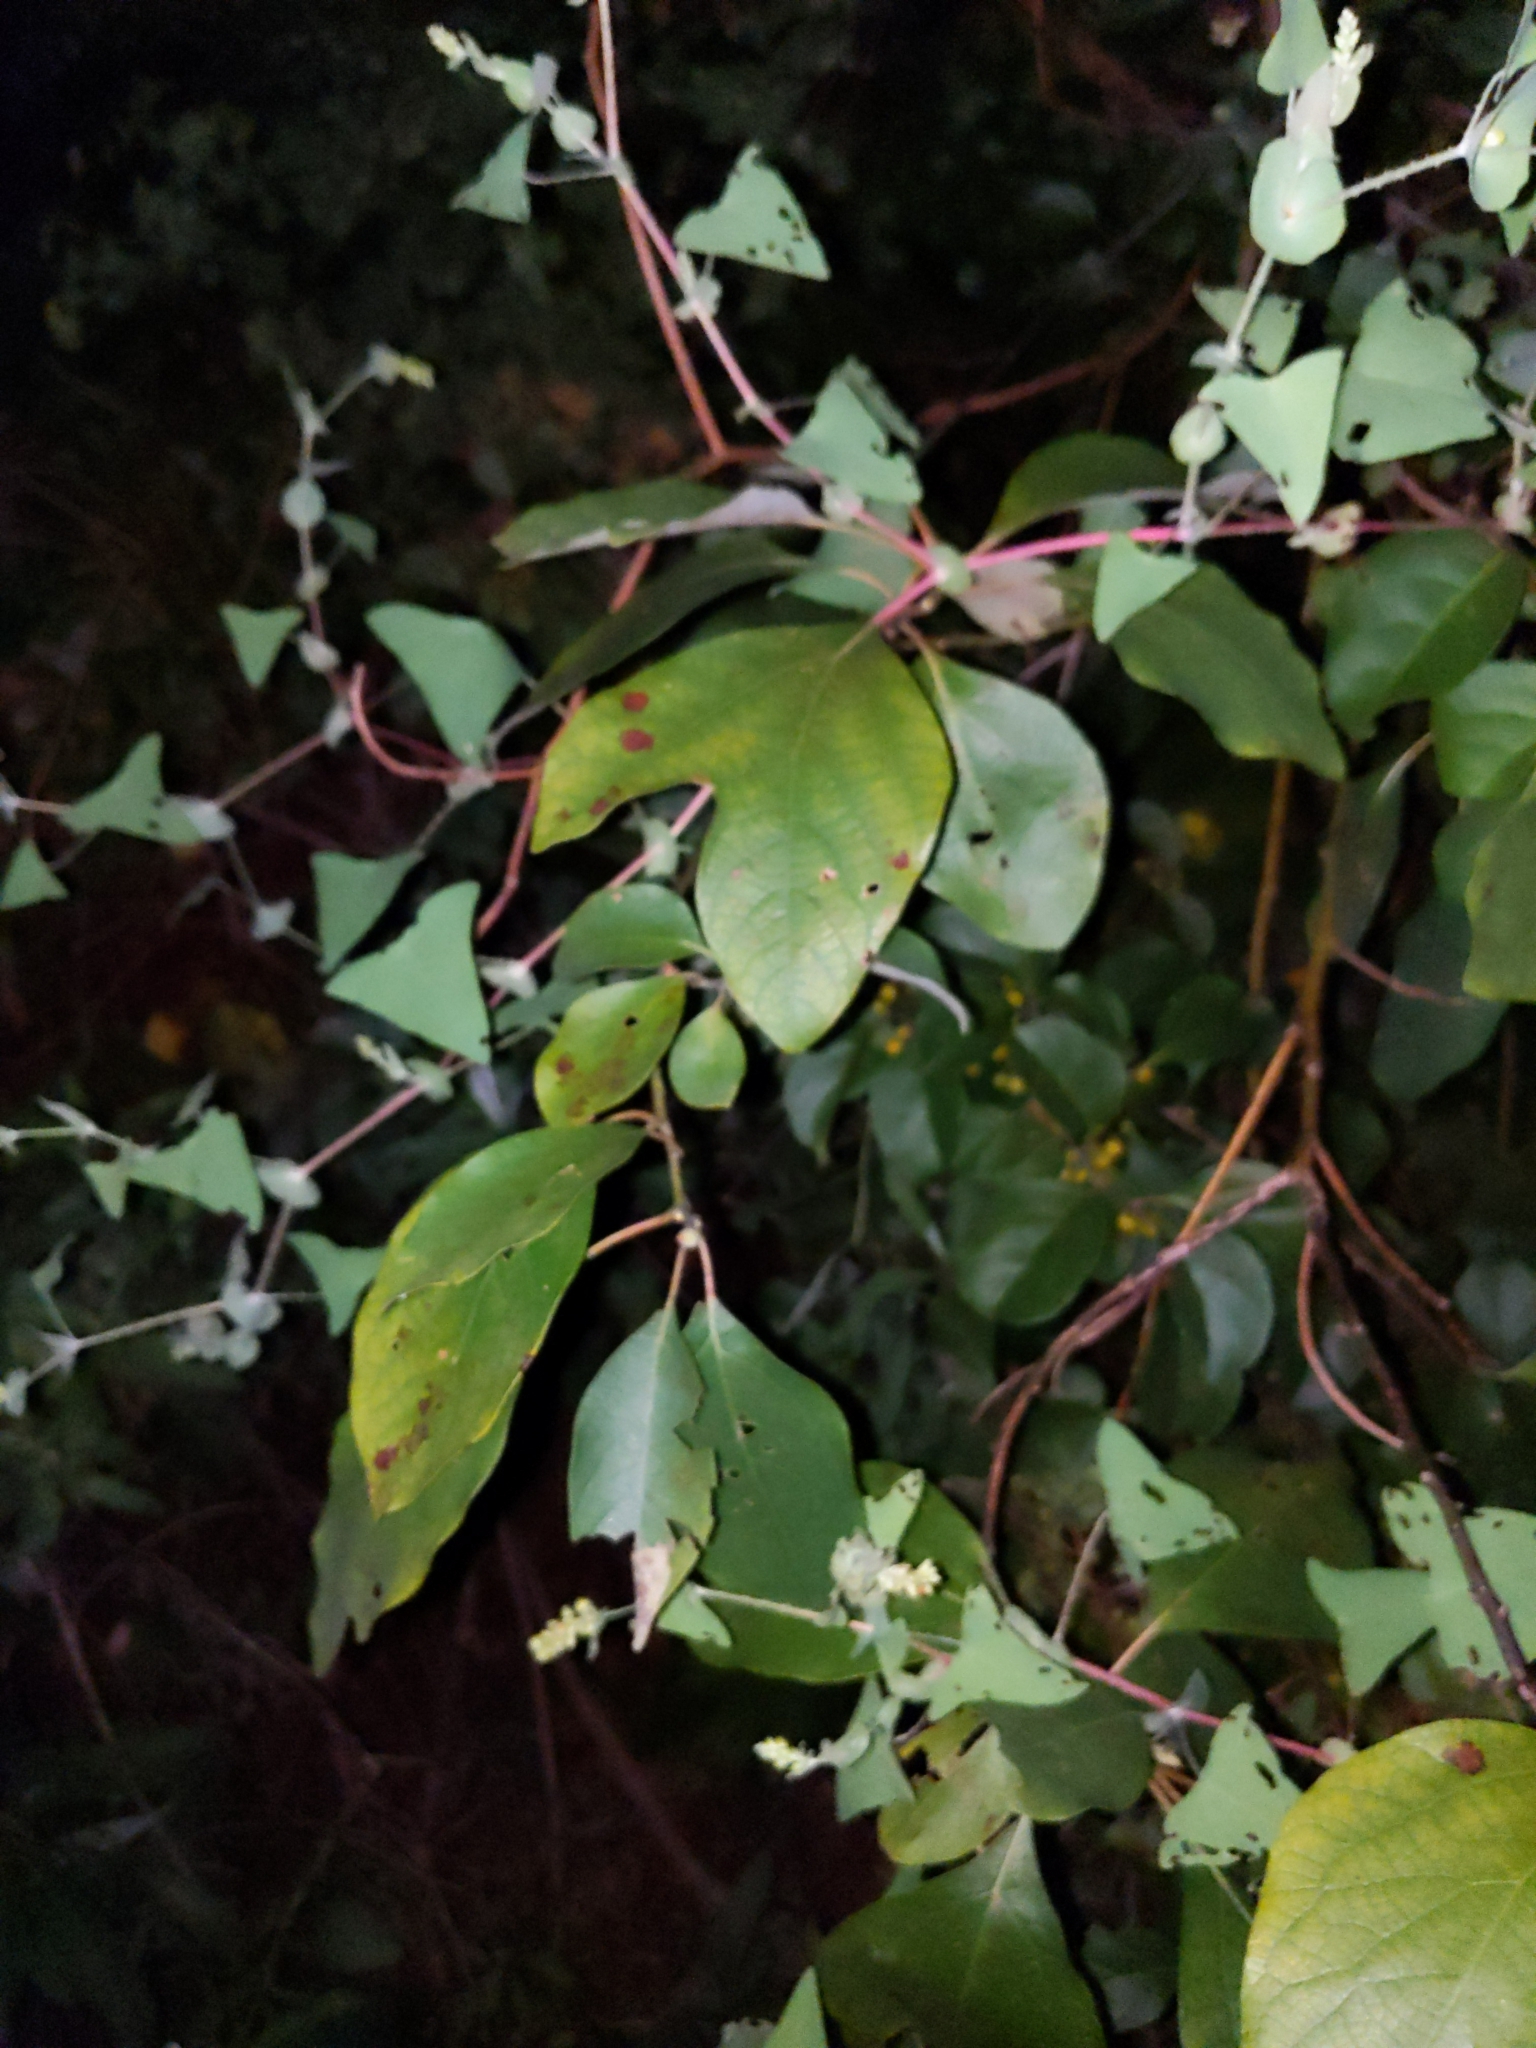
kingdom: Plantae
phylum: Tracheophyta
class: Magnoliopsida
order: Laurales
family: Lauraceae
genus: Sassafras
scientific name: Sassafras albidum
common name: Sassafras
